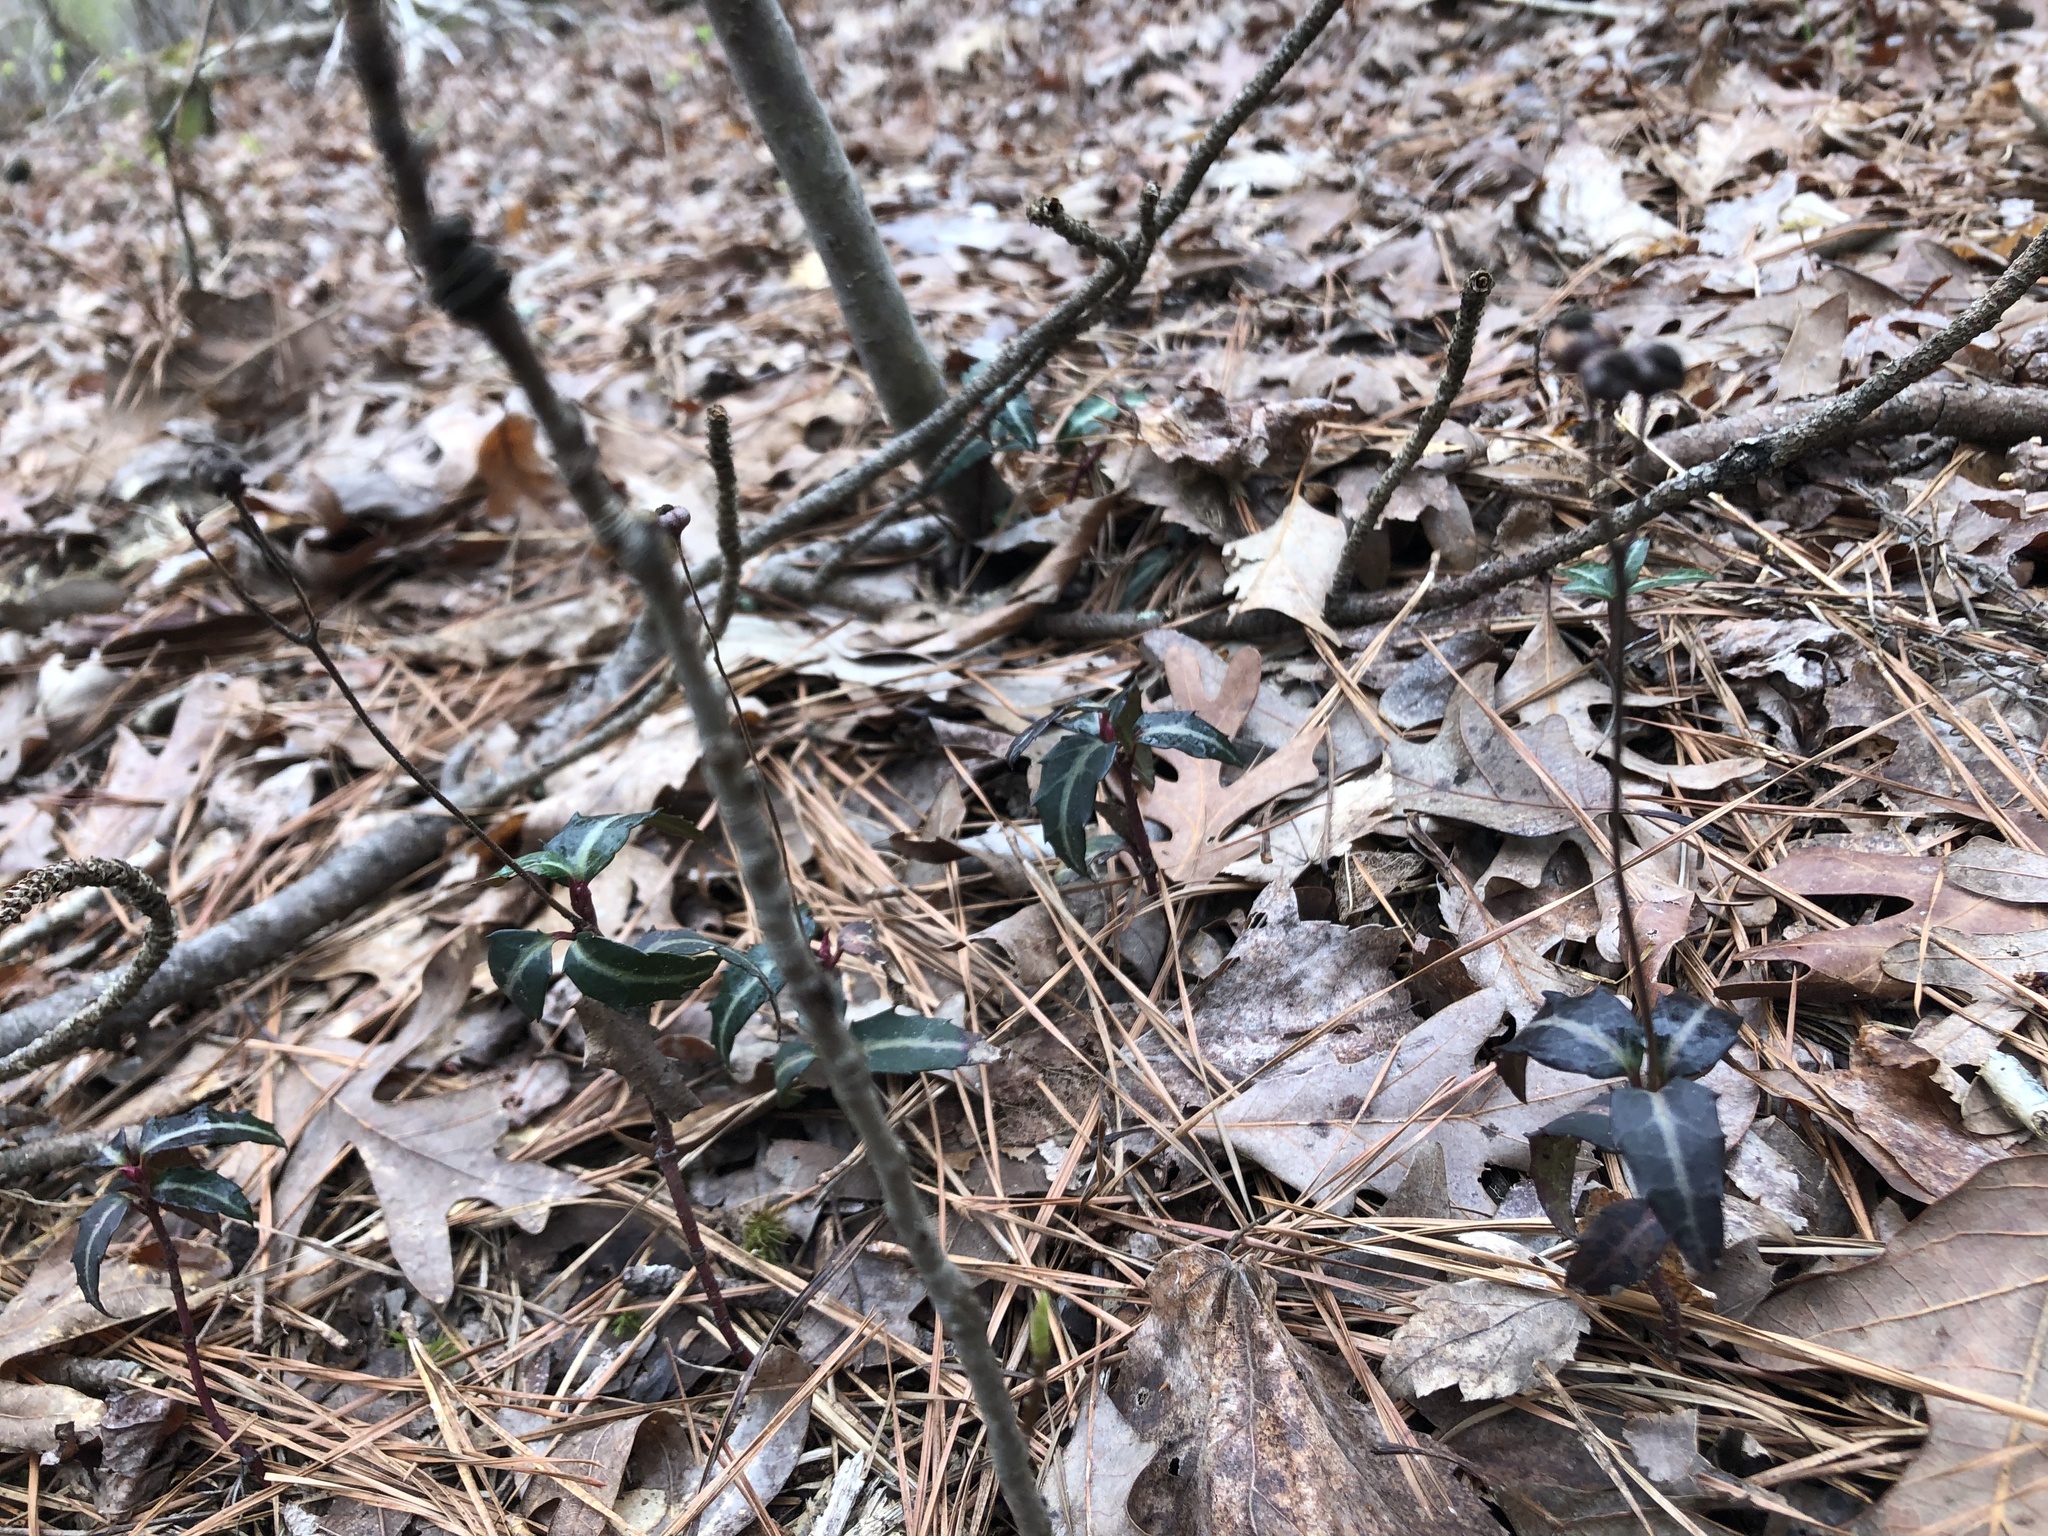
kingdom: Plantae
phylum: Tracheophyta
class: Magnoliopsida
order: Ericales
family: Ericaceae
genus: Chimaphila
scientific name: Chimaphila maculata
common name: Spotted pipsissewa
